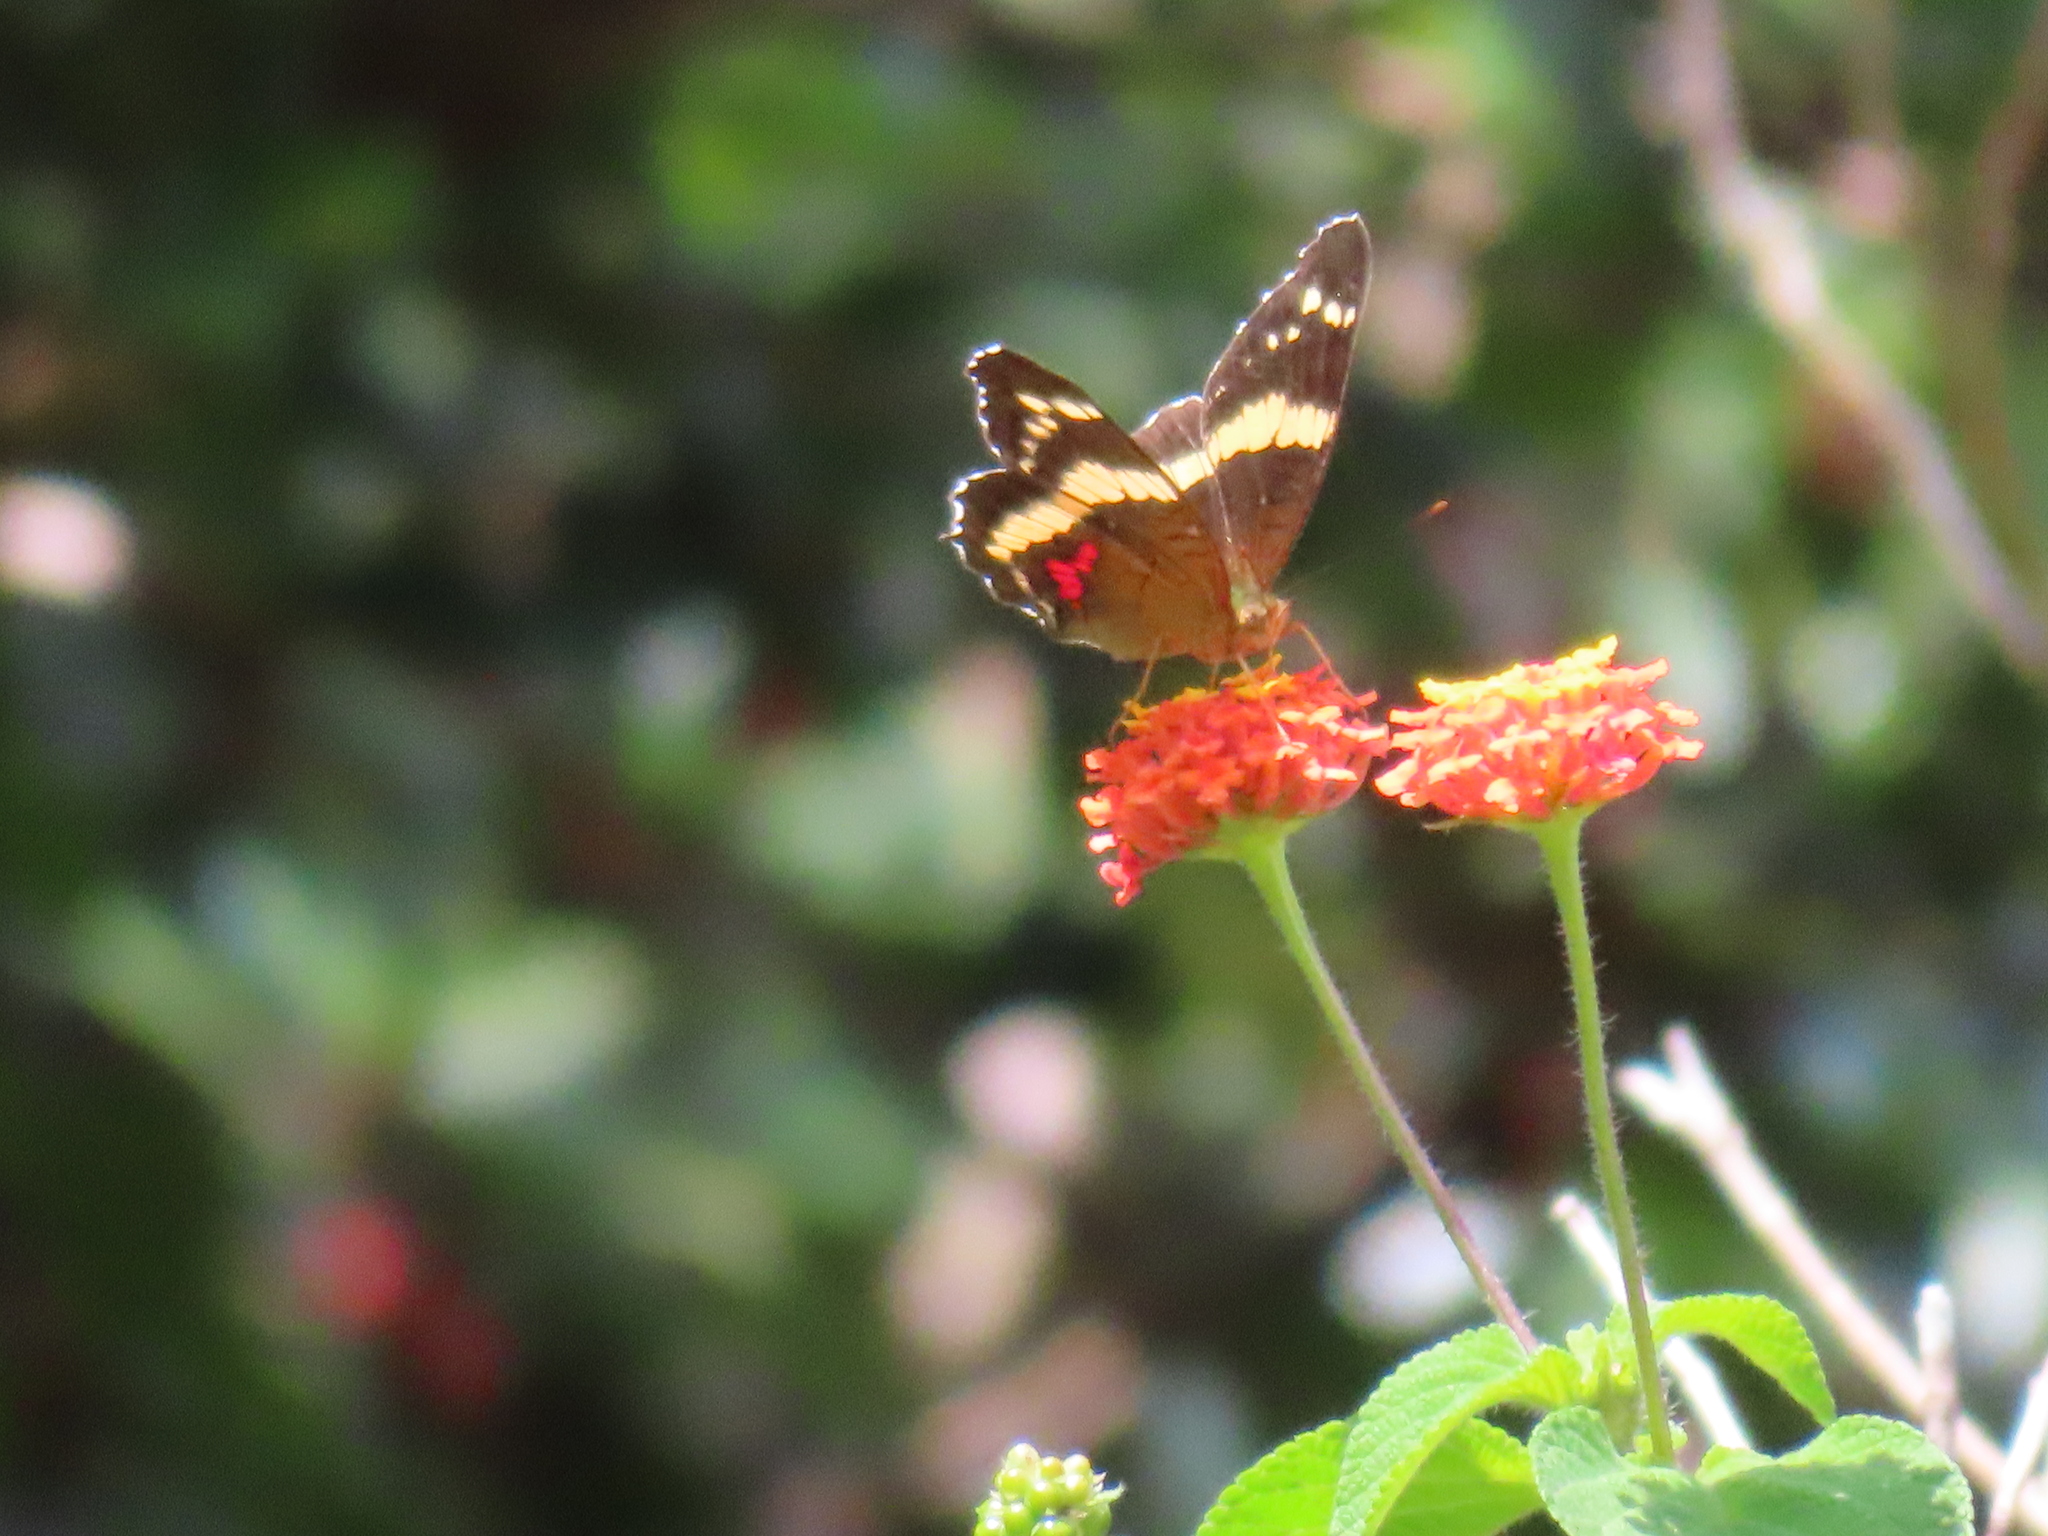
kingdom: Animalia
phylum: Arthropoda
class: Insecta
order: Lepidoptera
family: Nymphalidae
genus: Anartia
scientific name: Anartia fatima
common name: Banded peacock
